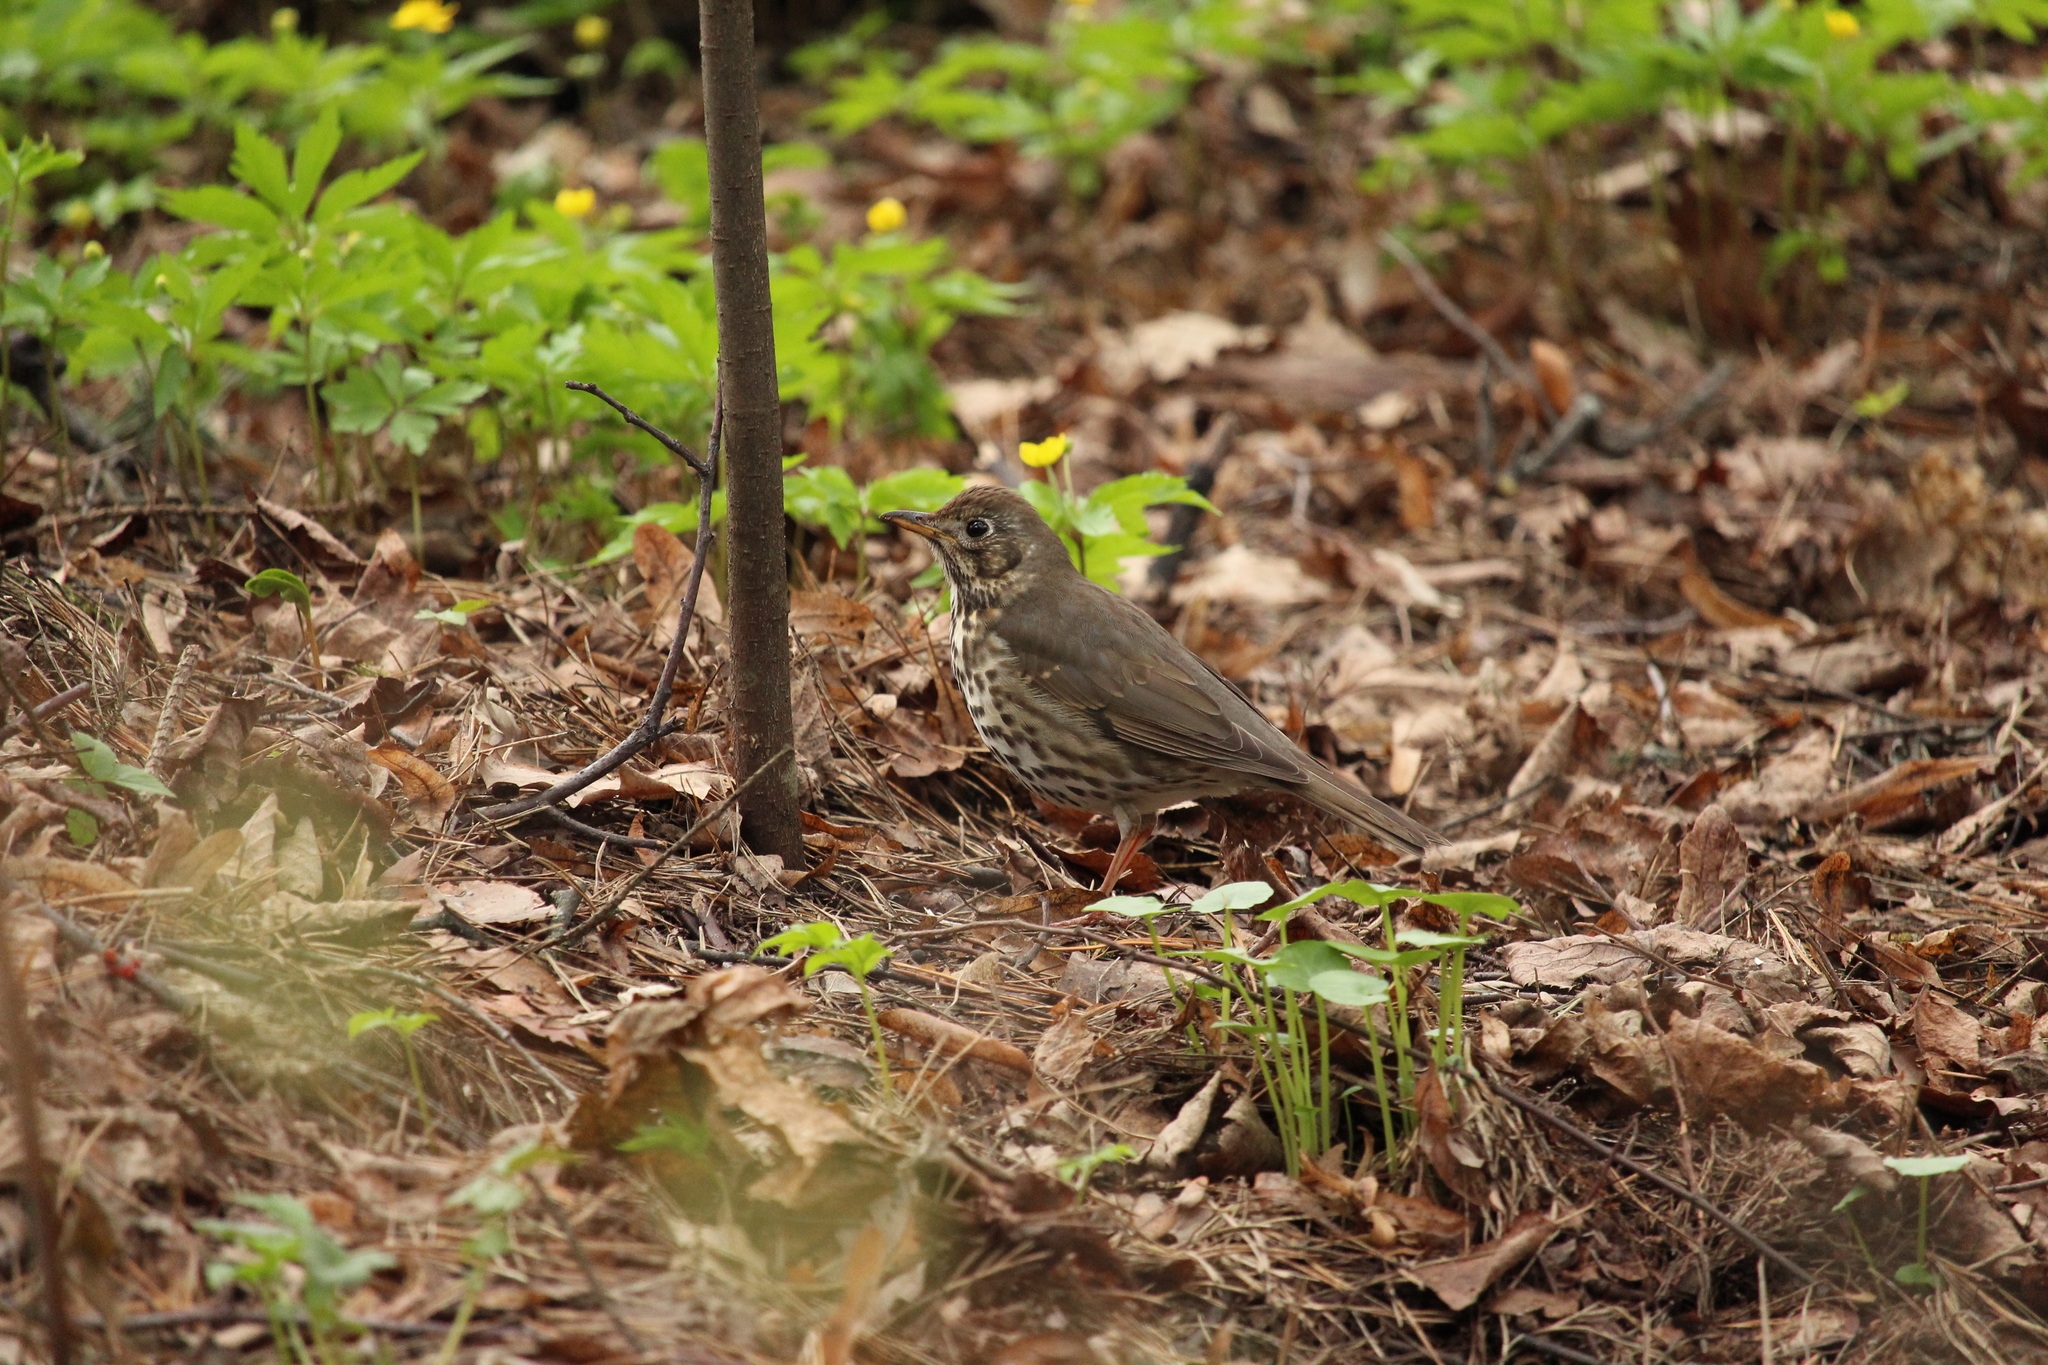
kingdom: Animalia
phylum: Chordata
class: Aves
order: Passeriformes
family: Turdidae
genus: Turdus
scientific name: Turdus philomelos
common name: Song thrush
